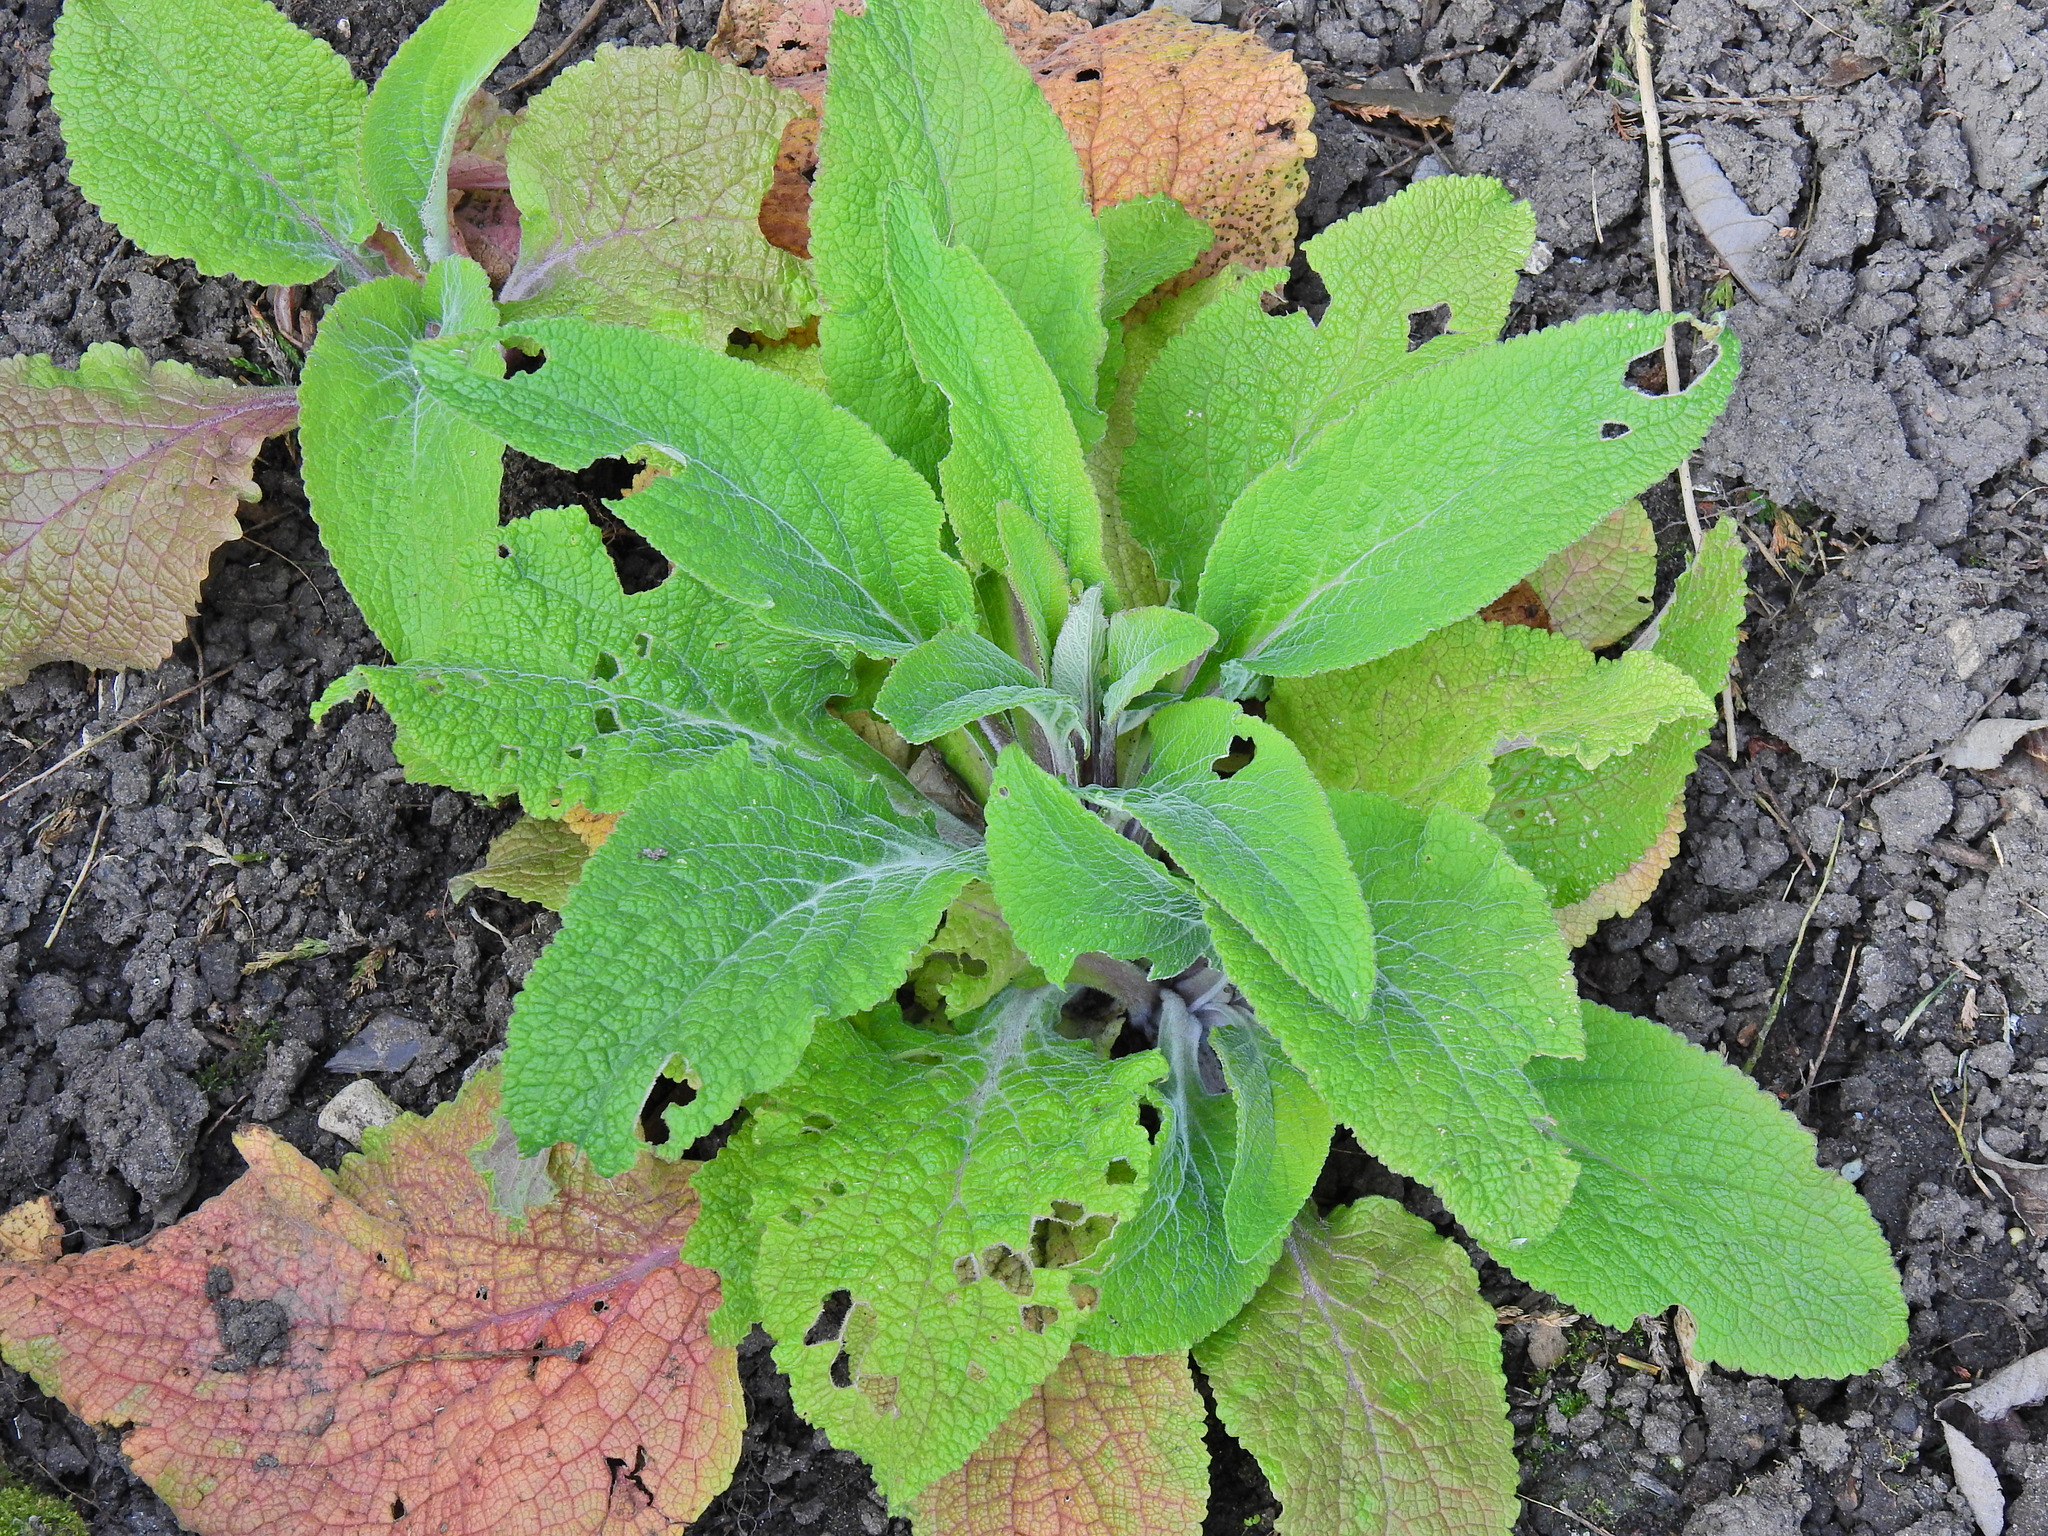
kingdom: Plantae
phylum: Tracheophyta
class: Magnoliopsida
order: Lamiales
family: Plantaginaceae
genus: Digitalis
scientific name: Digitalis purpurea
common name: Foxglove
